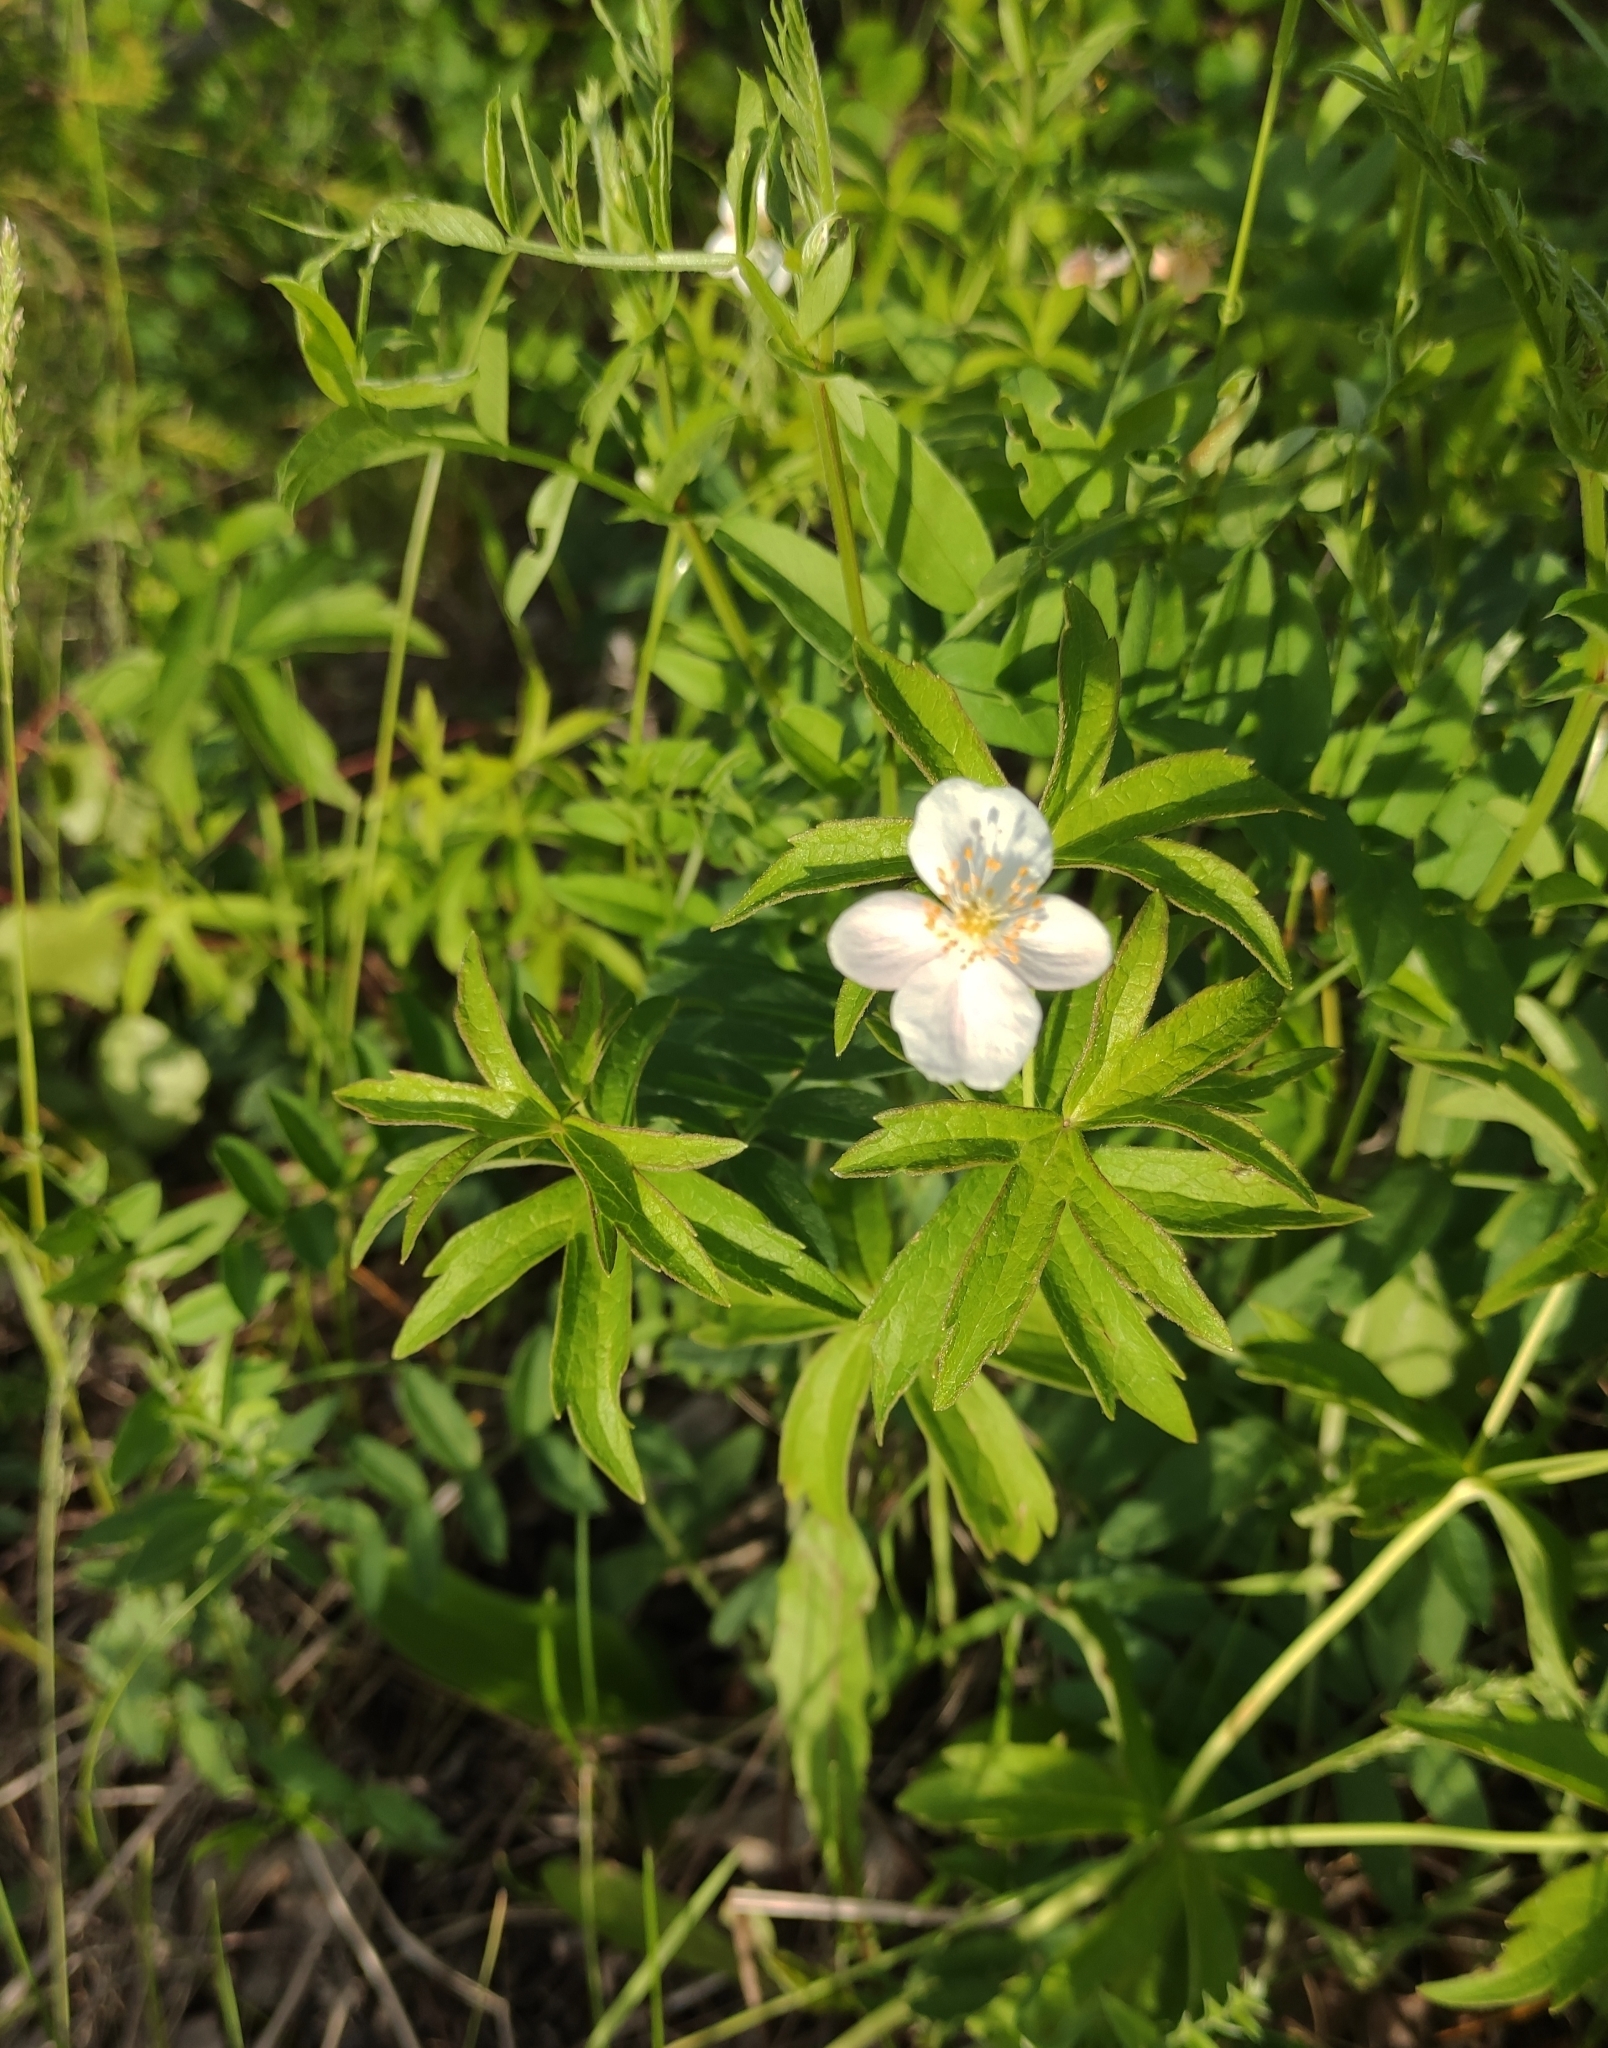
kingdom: Plantae
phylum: Tracheophyta
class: Magnoliopsida
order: Ranunculales
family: Ranunculaceae
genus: Anemonastrum
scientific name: Anemonastrum dichotomum
